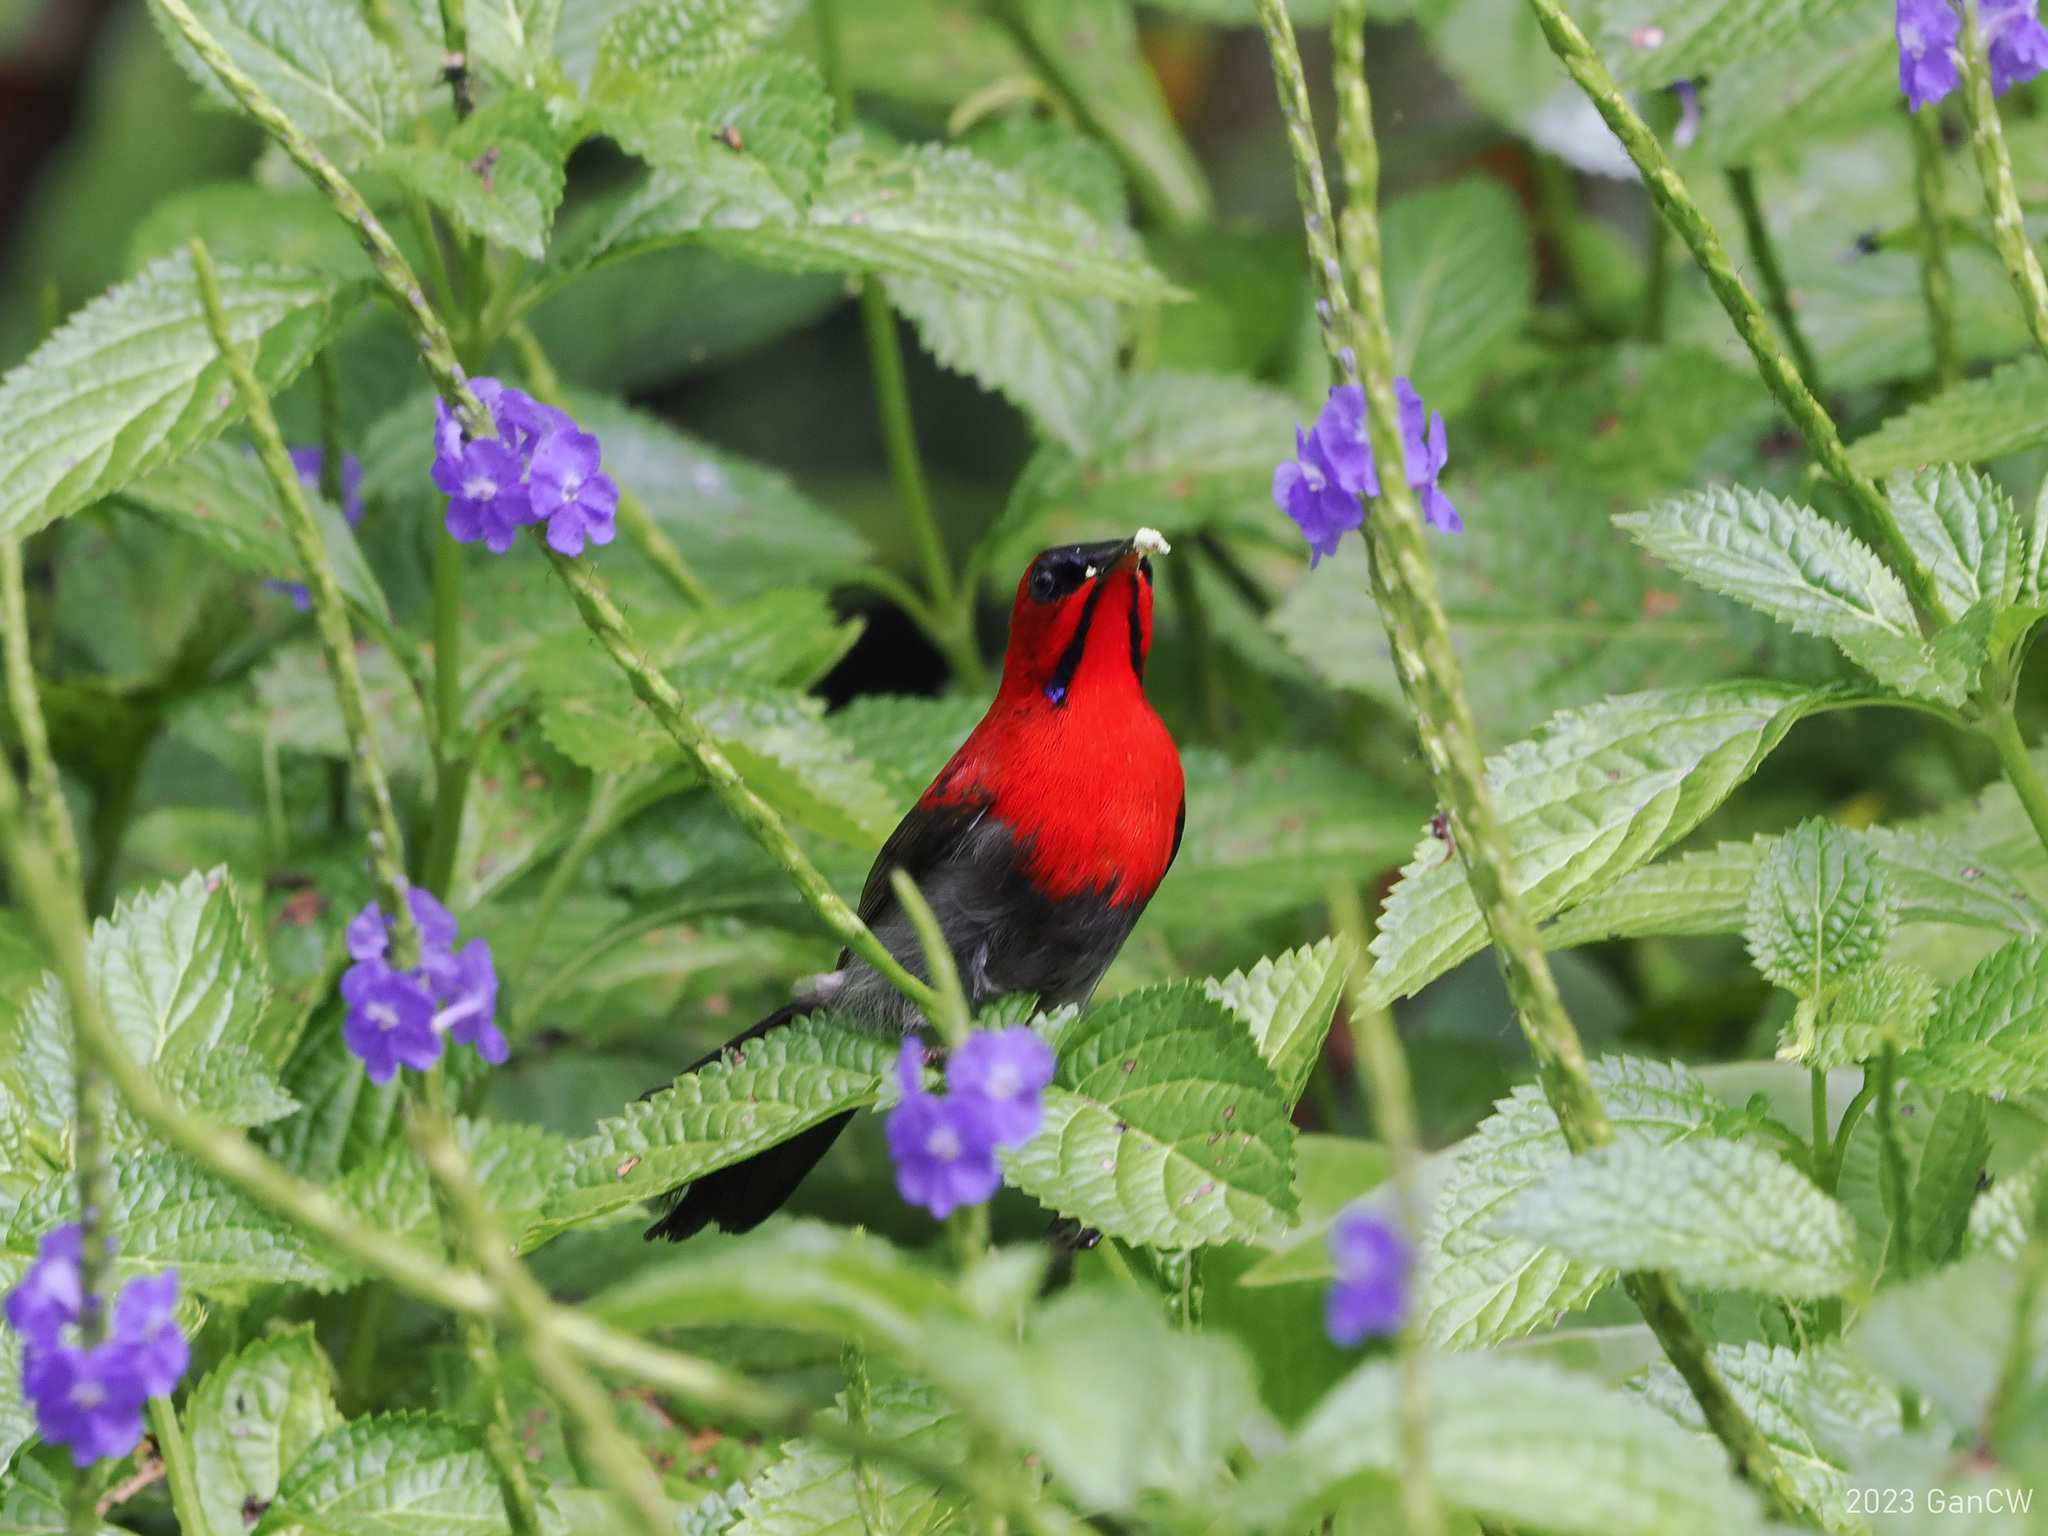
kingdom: Animalia
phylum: Chordata
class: Aves
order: Passeriformes
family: Nectariniidae
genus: Aethopyga
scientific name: Aethopyga siparaja
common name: Crimson sunbird
